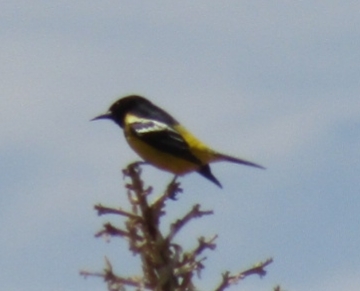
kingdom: Animalia
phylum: Chordata
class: Aves
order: Passeriformes
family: Icteridae
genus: Icterus
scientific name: Icterus parisorum
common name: Scott's oriole
